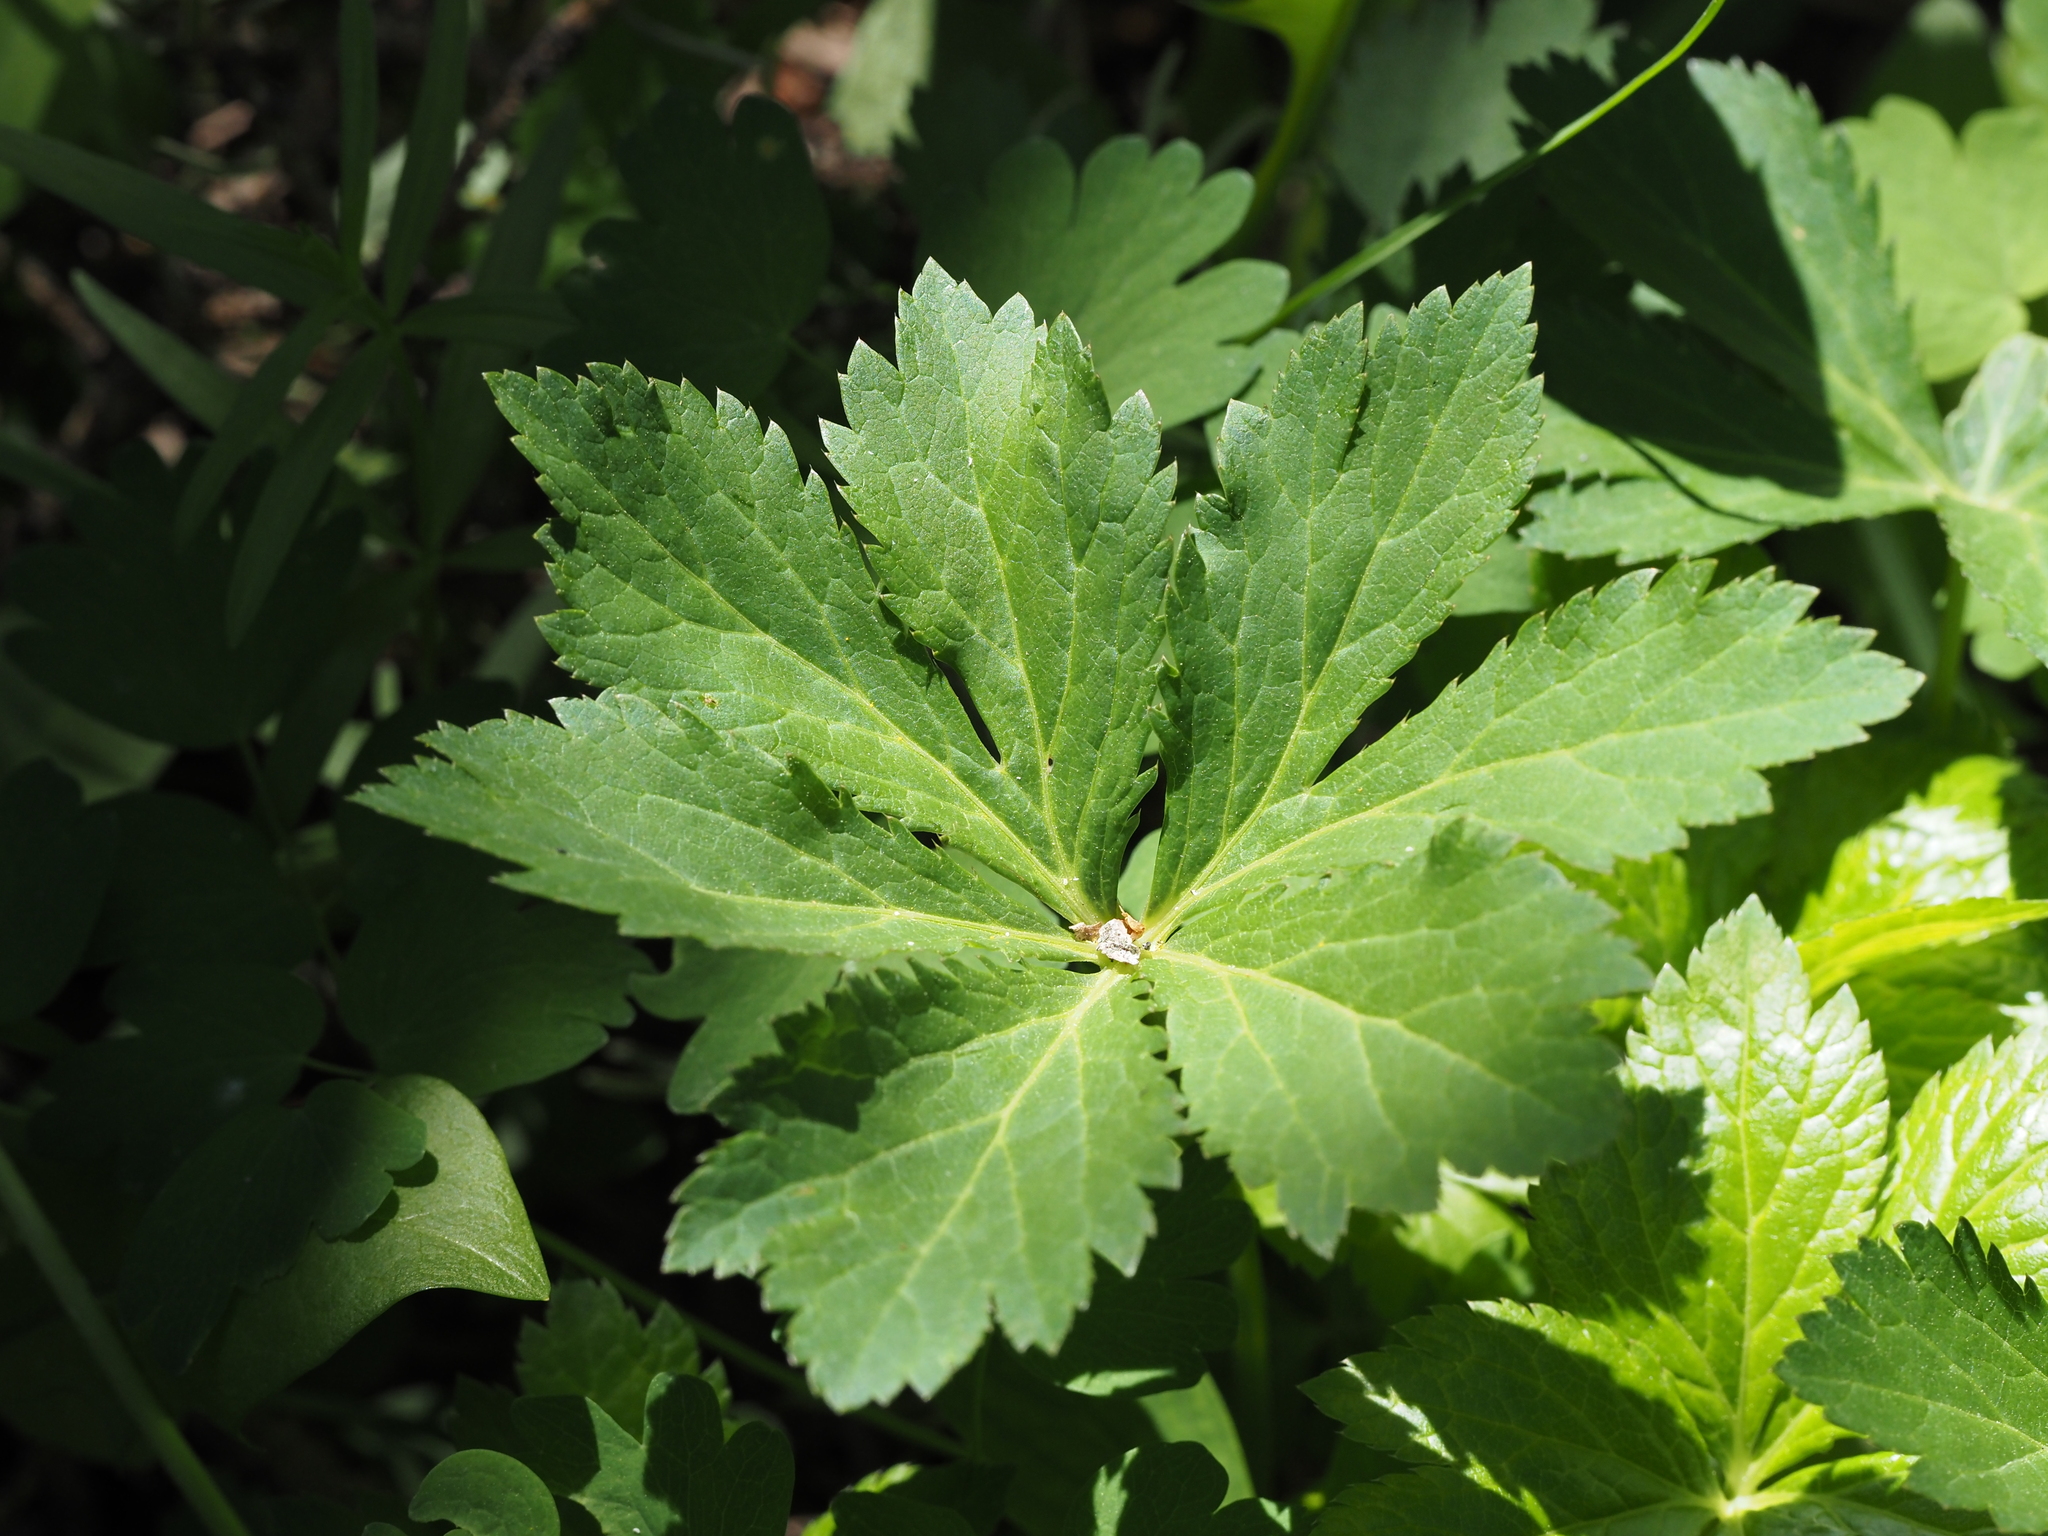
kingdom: Plantae
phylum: Tracheophyta
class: Magnoliopsida
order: Apiales
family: Apiaceae
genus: Sanicula
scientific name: Sanicula marilandica
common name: Black snakeroot
